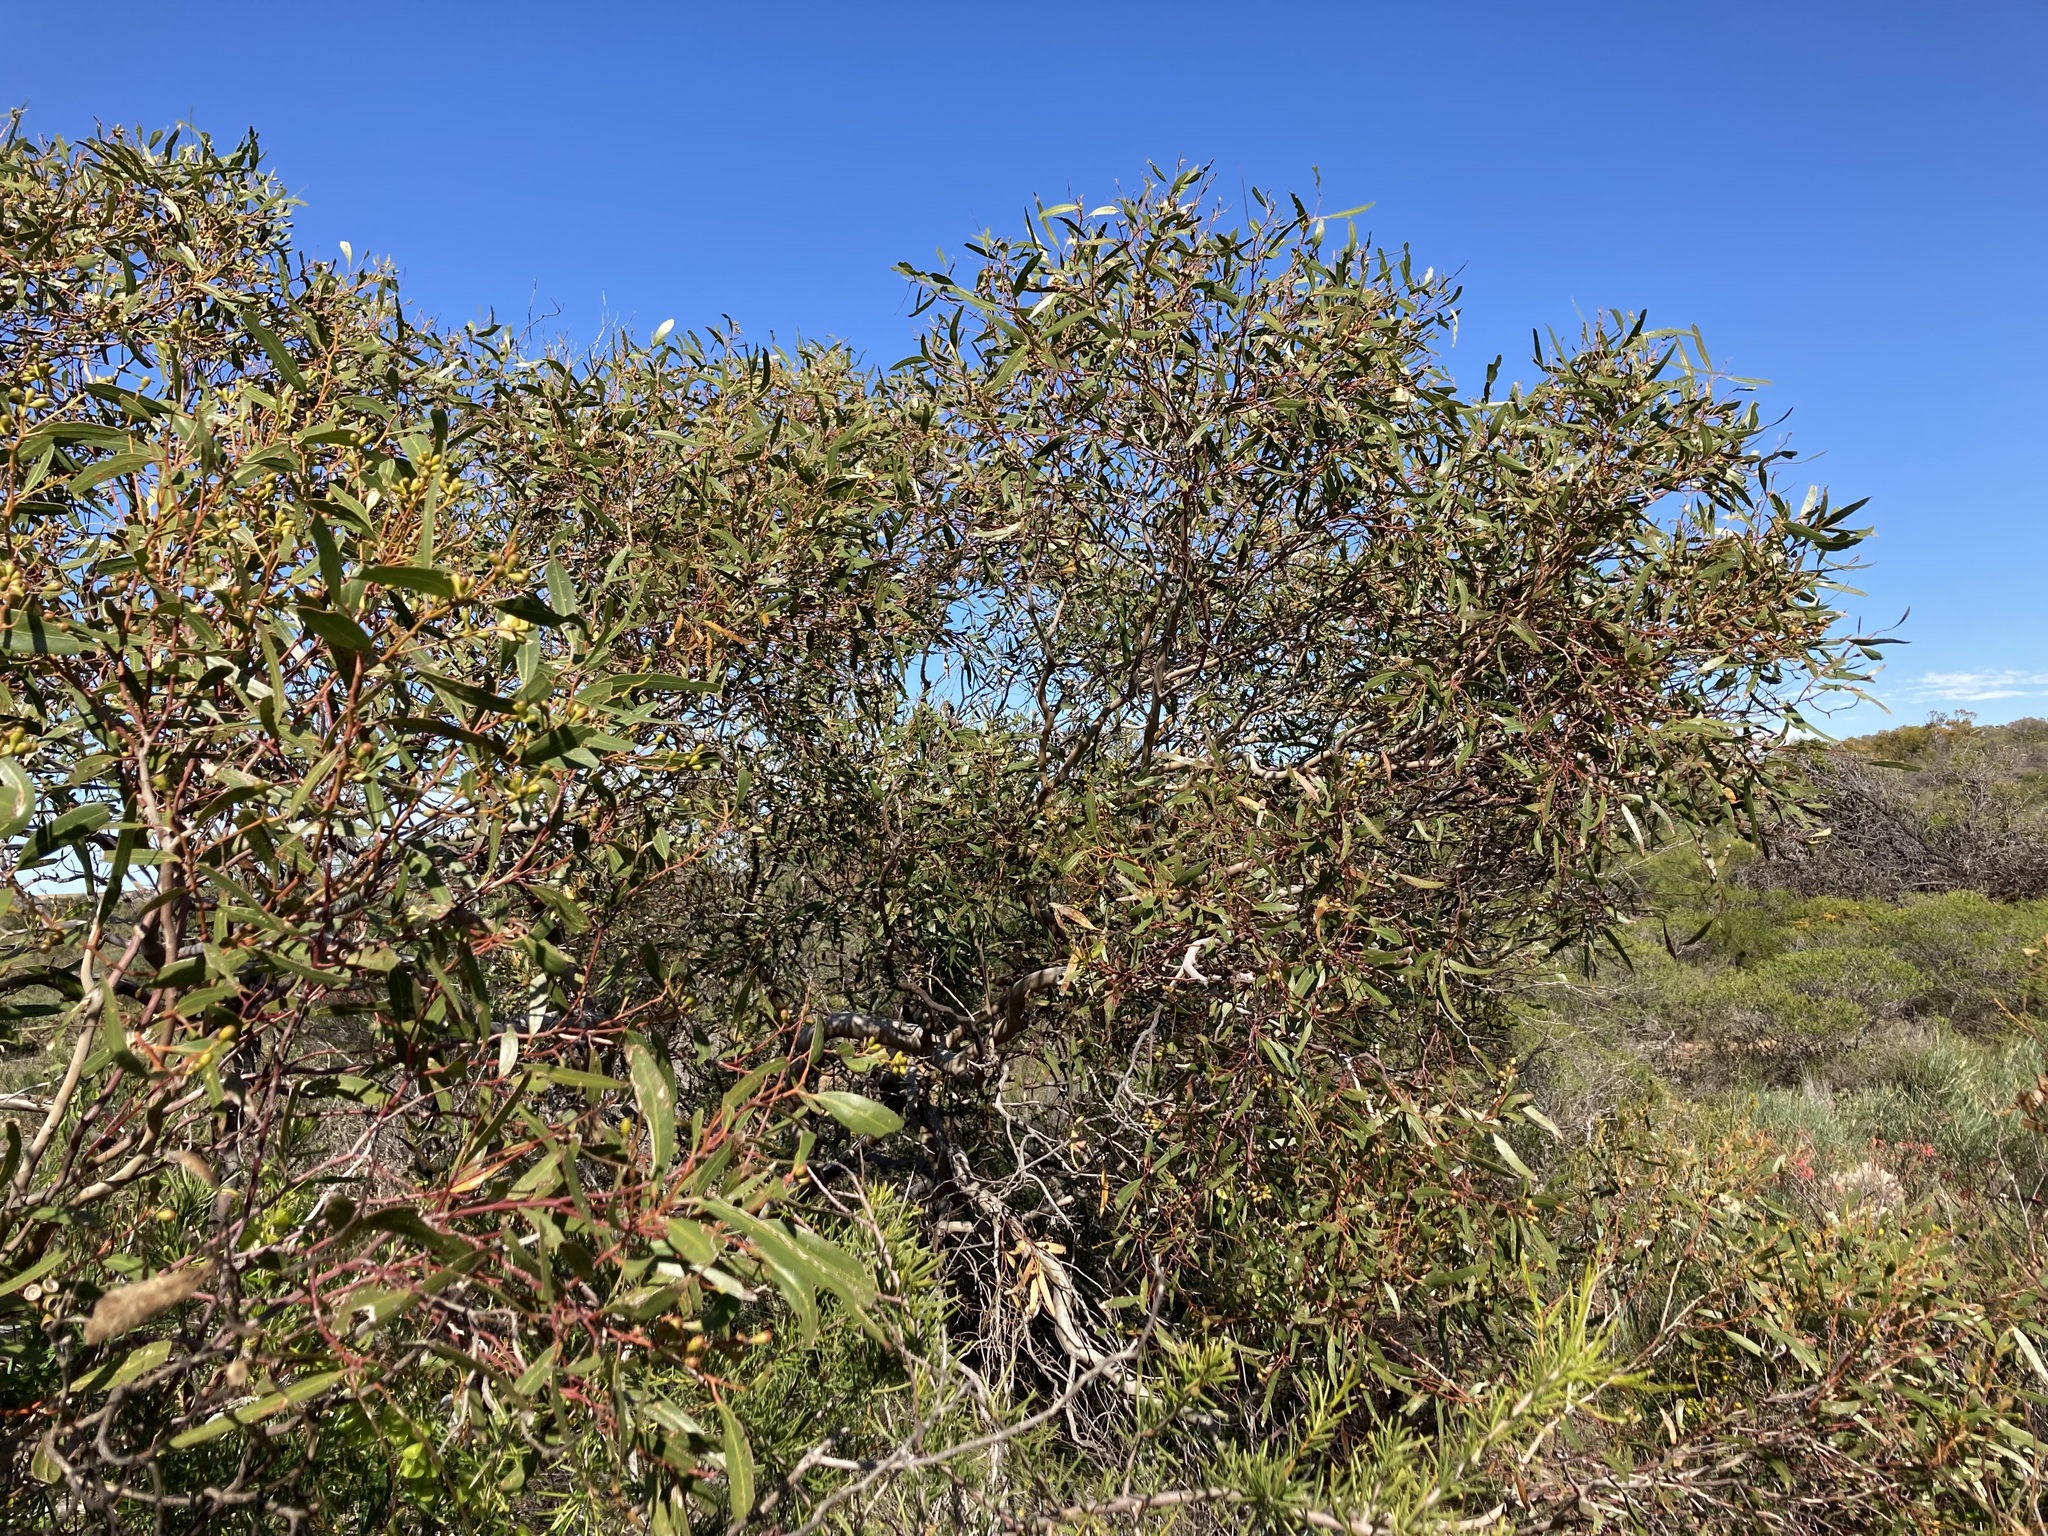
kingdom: Plantae
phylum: Tracheophyta
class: Magnoliopsida
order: Myrtales
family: Myrtaceae
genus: Eucalyptus
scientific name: Eucalyptus blaxellii
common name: Howatharra mallee
